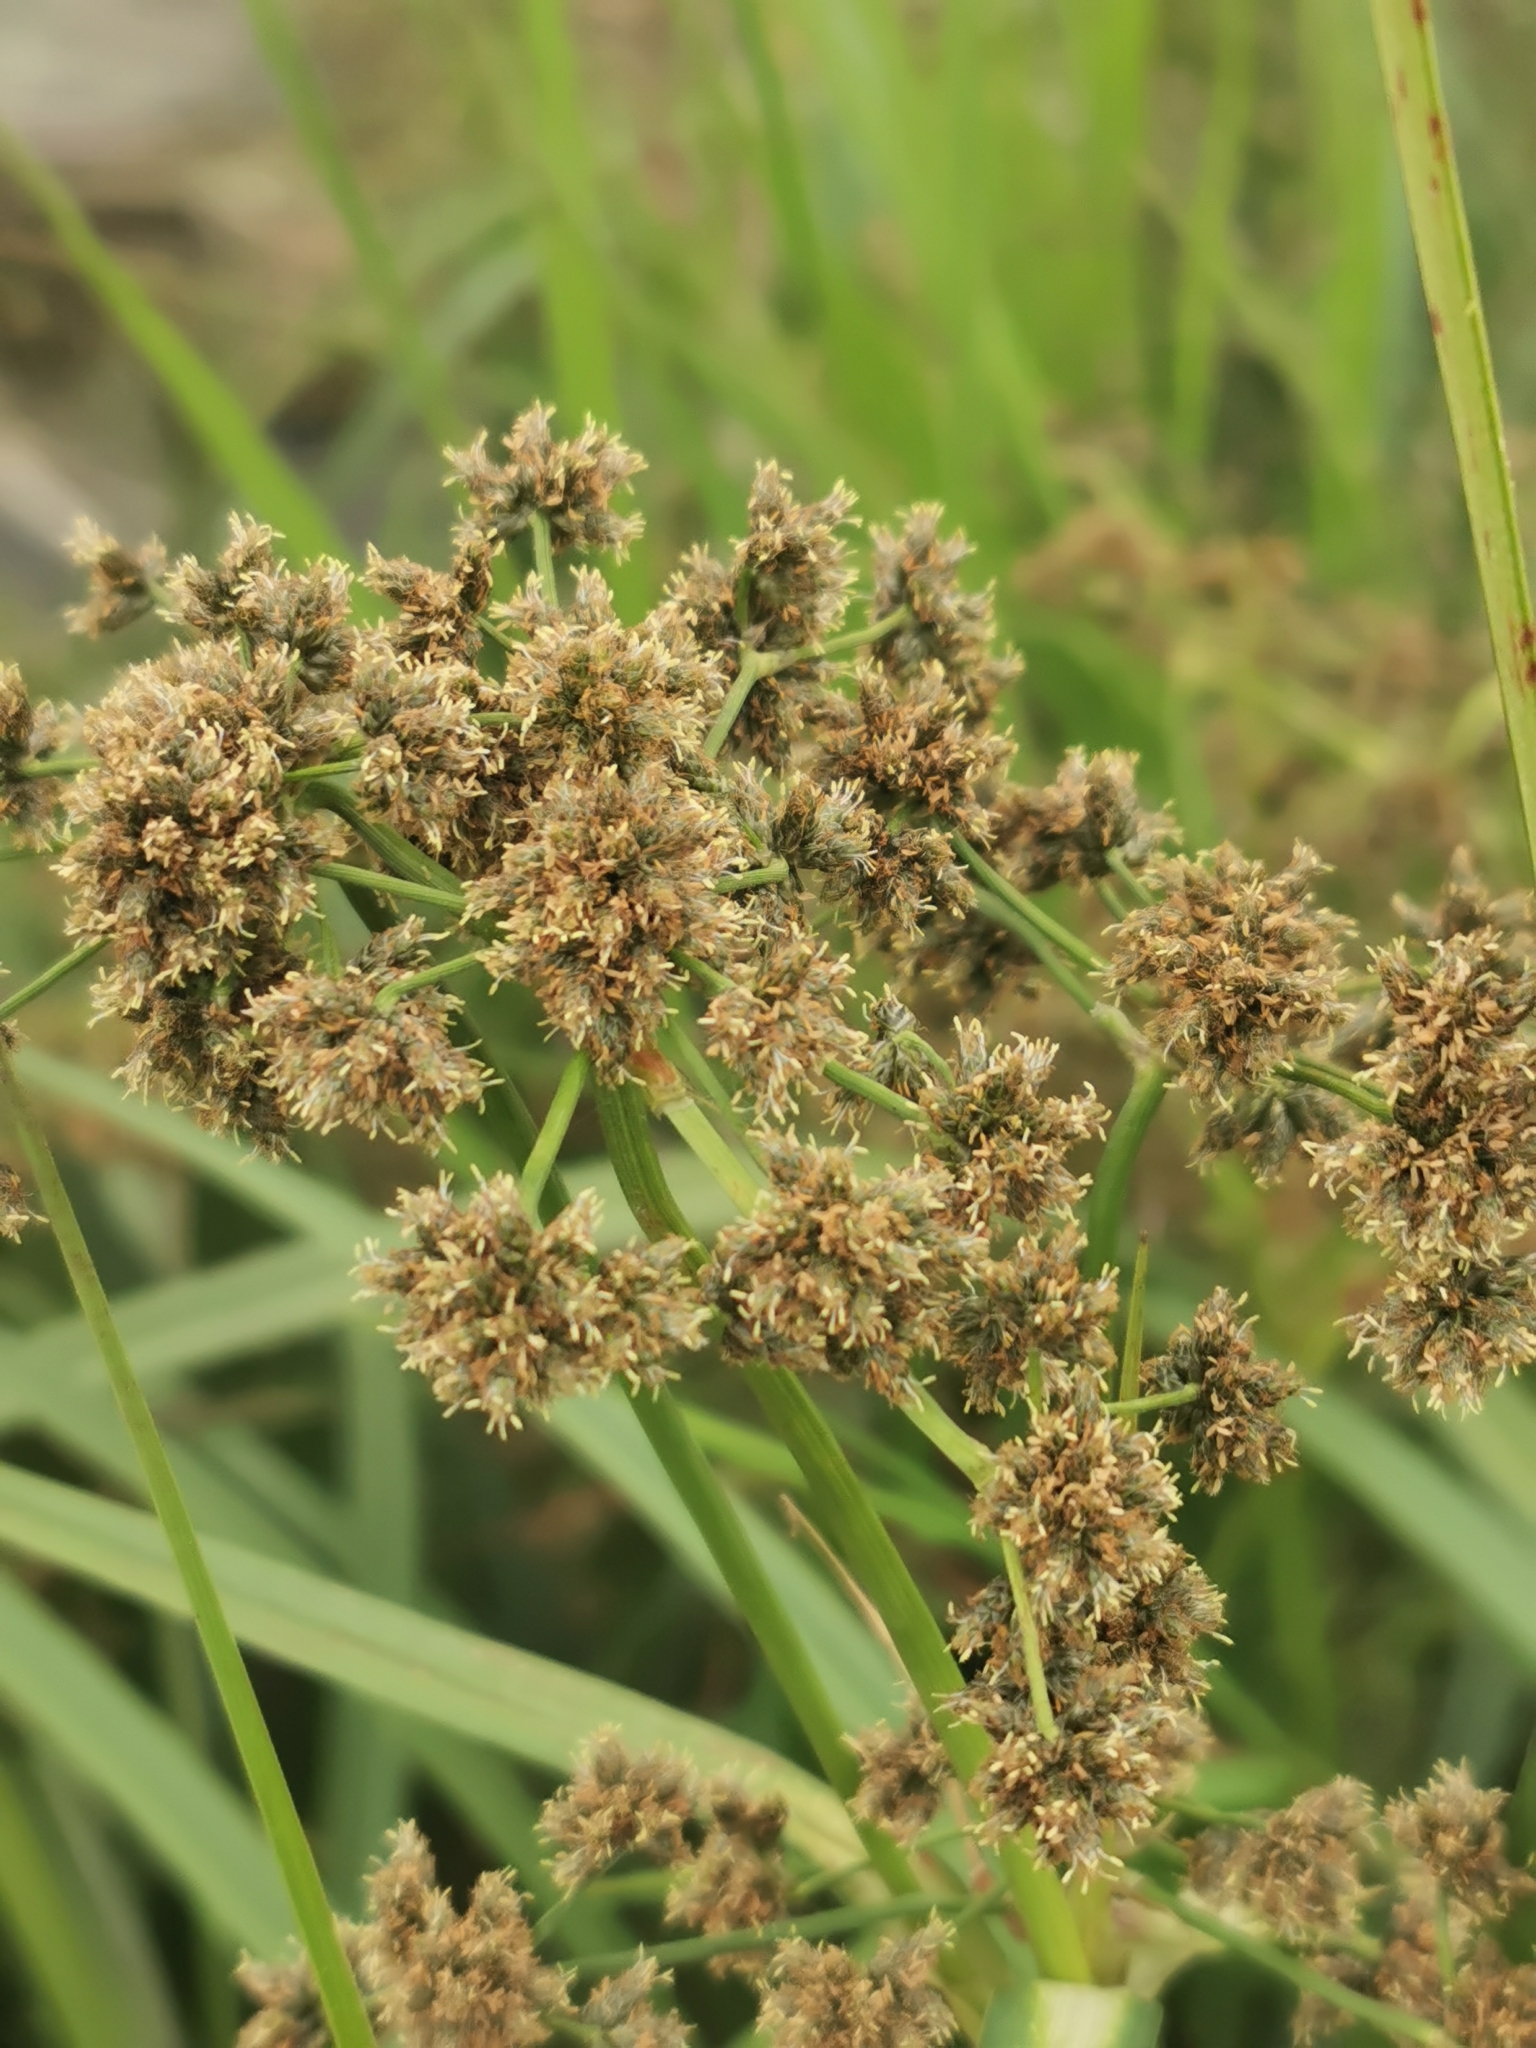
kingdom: Plantae
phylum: Tracheophyta
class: Liliopsida
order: Poales
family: Cyperaceae
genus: Scirpus
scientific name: Scirpus microcarpus
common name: Panicled bulrush
